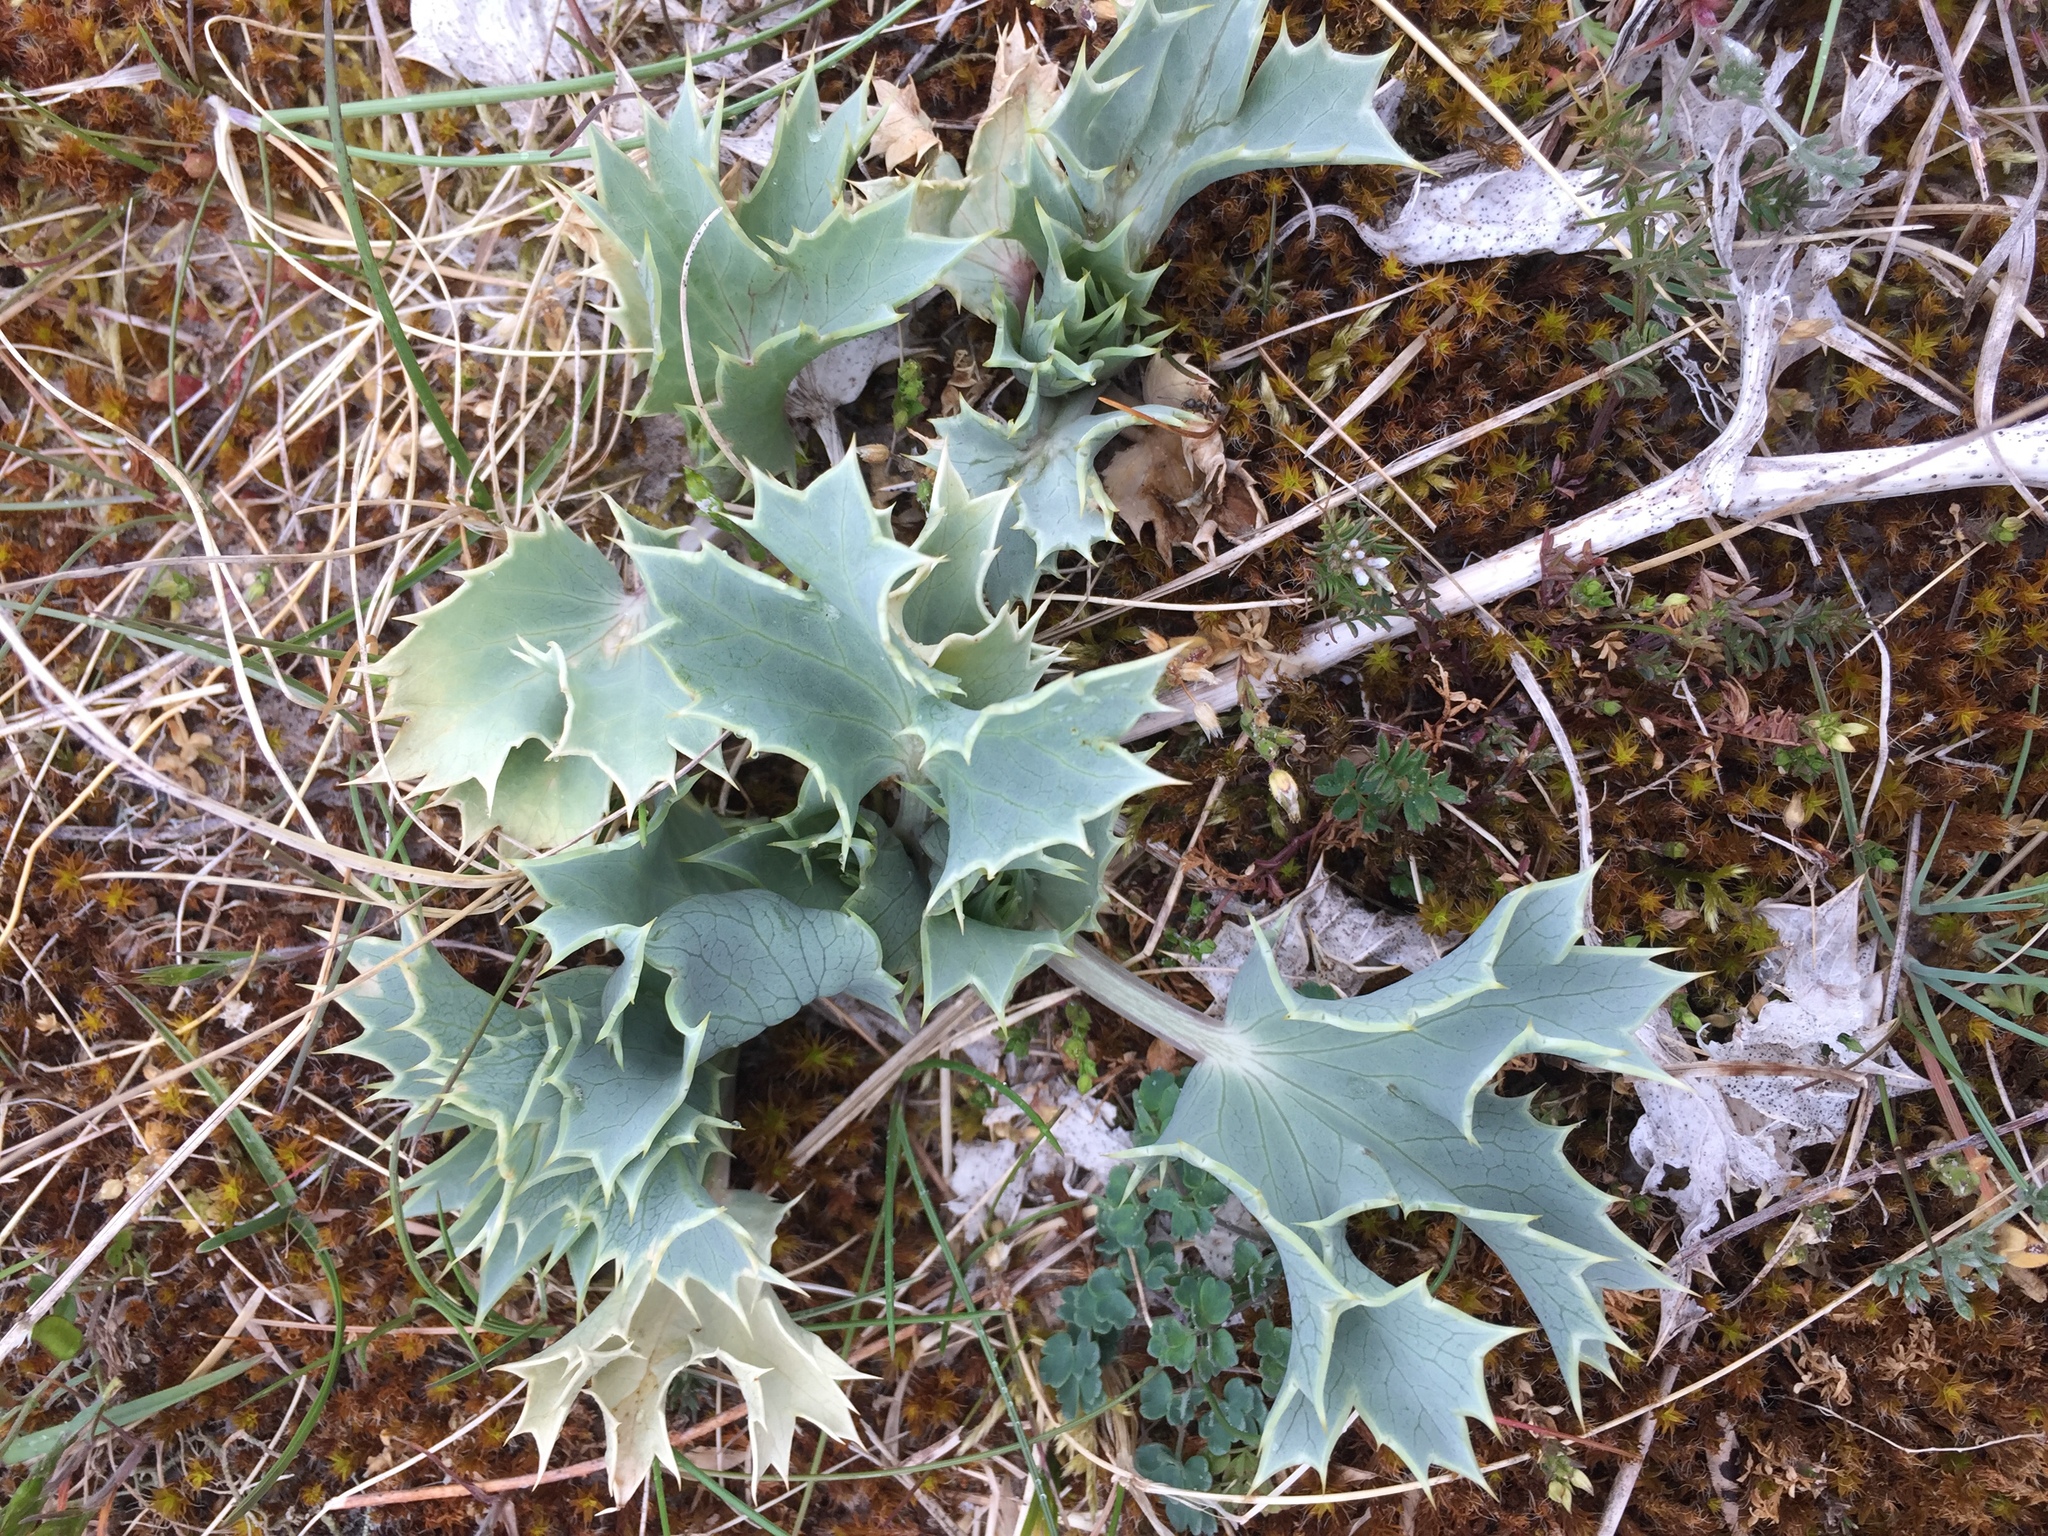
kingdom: Plantae
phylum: Tracheophyta
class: Magnoliopsida
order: Apiales
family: Apiaceae
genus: Eryngium
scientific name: Eryngium maritimum
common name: Sea-holly
